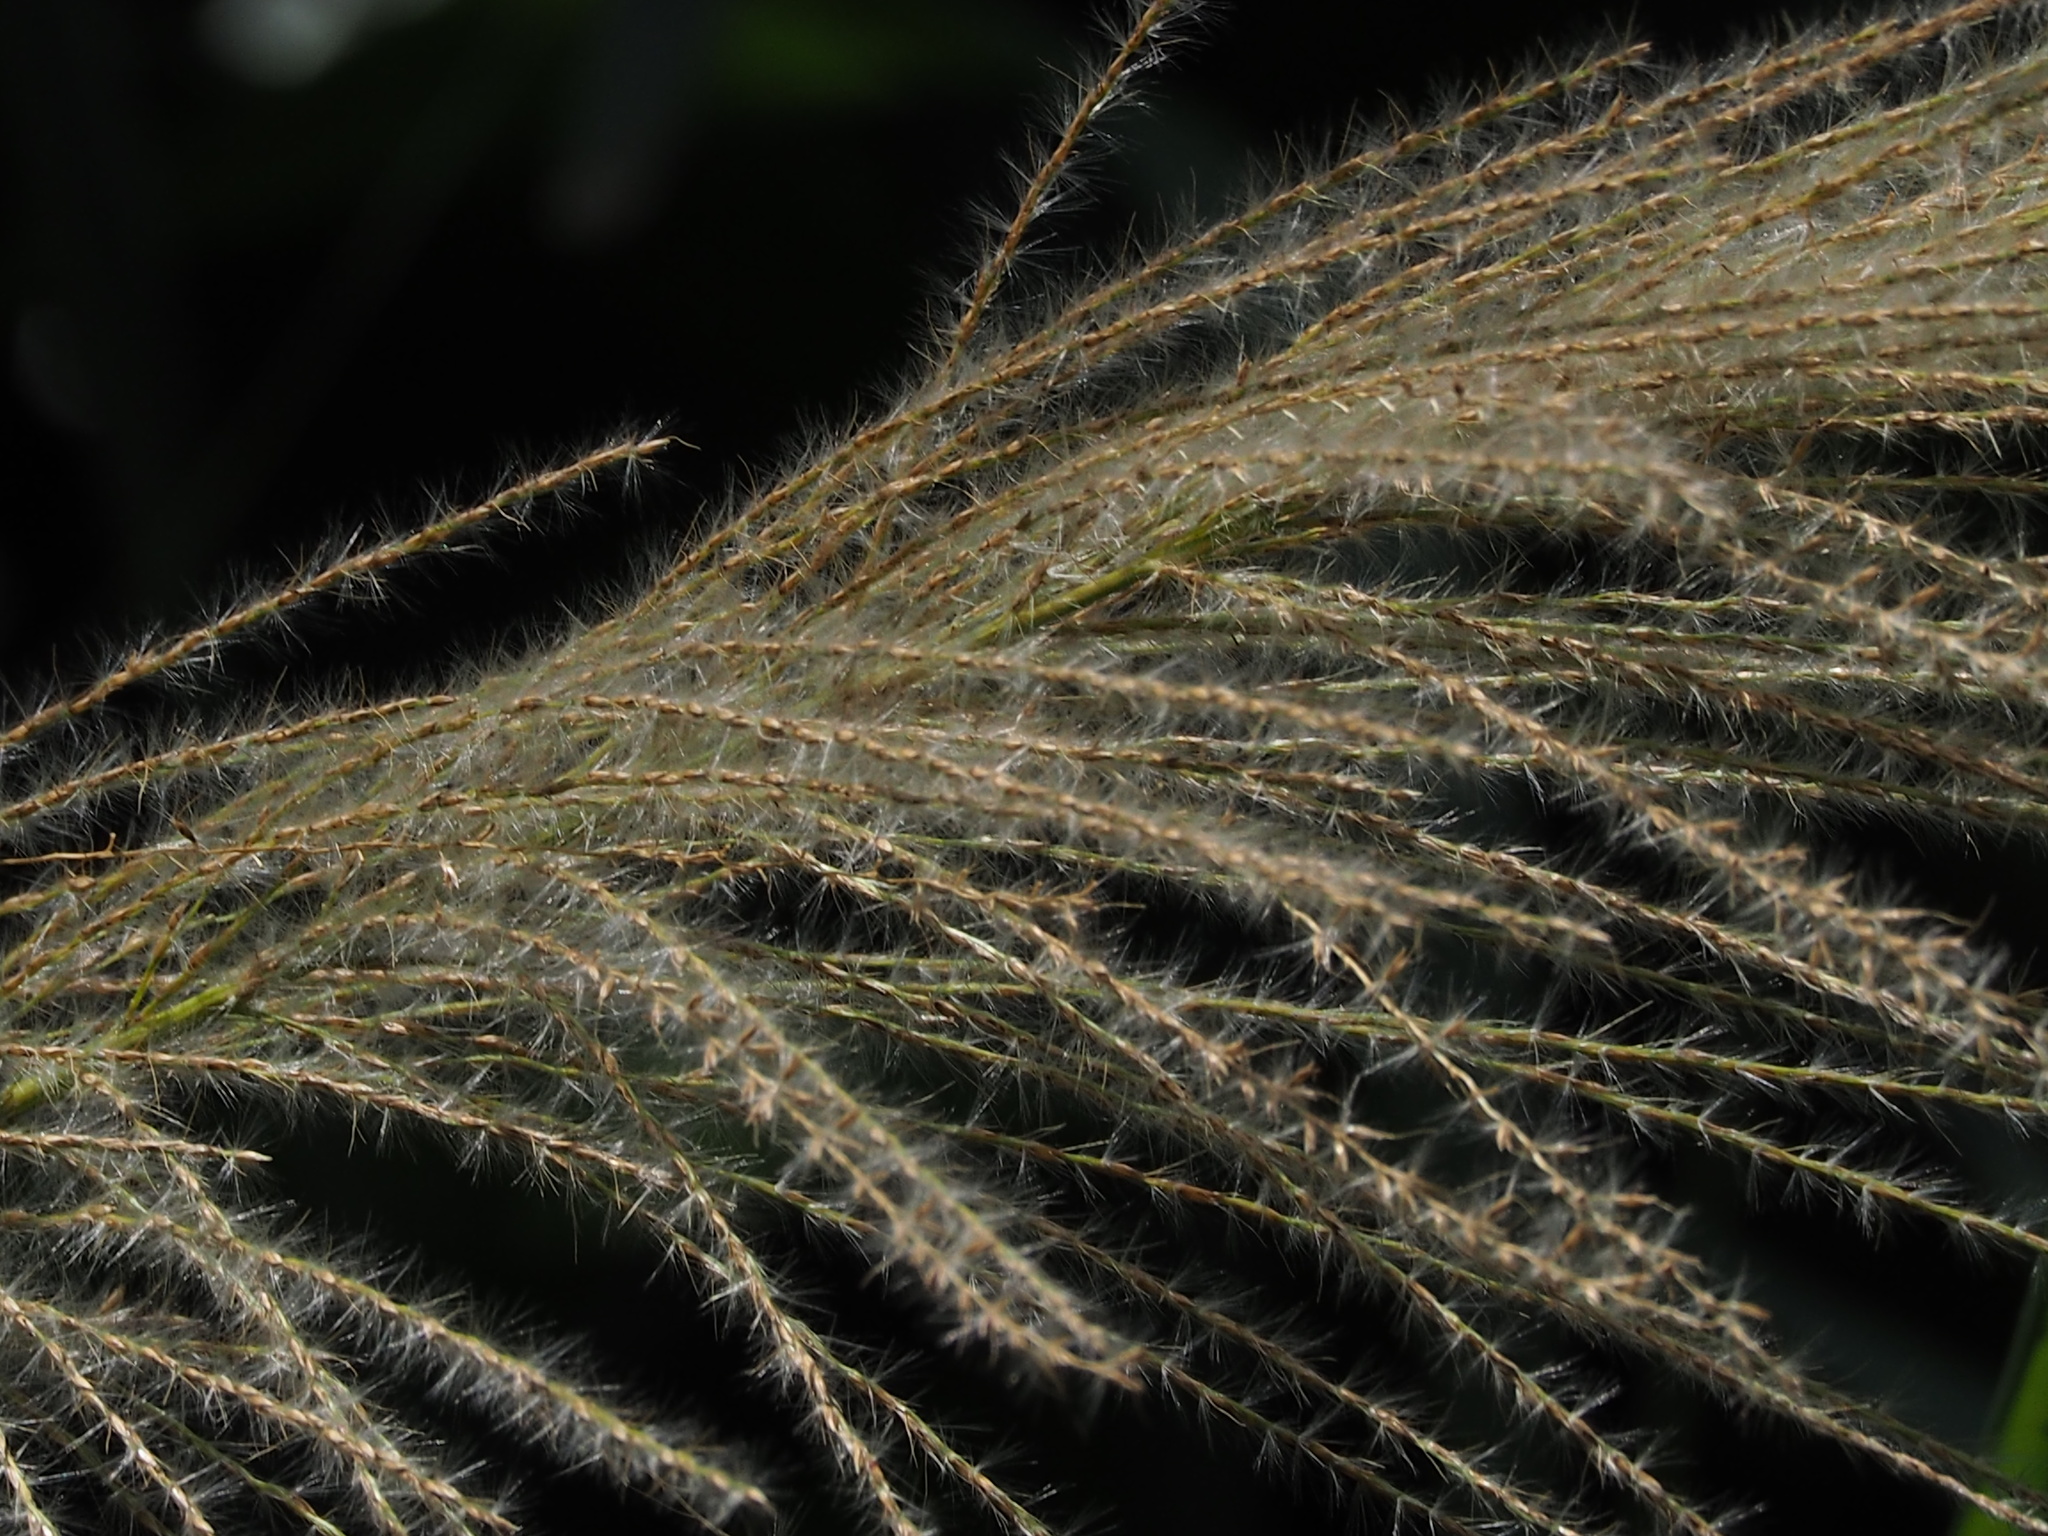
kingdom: Plantae
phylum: Tracheophyta
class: Liliopsida
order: Poales
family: Poaceae
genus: Miscanthus
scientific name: Miscanthus floridulus
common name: Pacific island silvergrass
